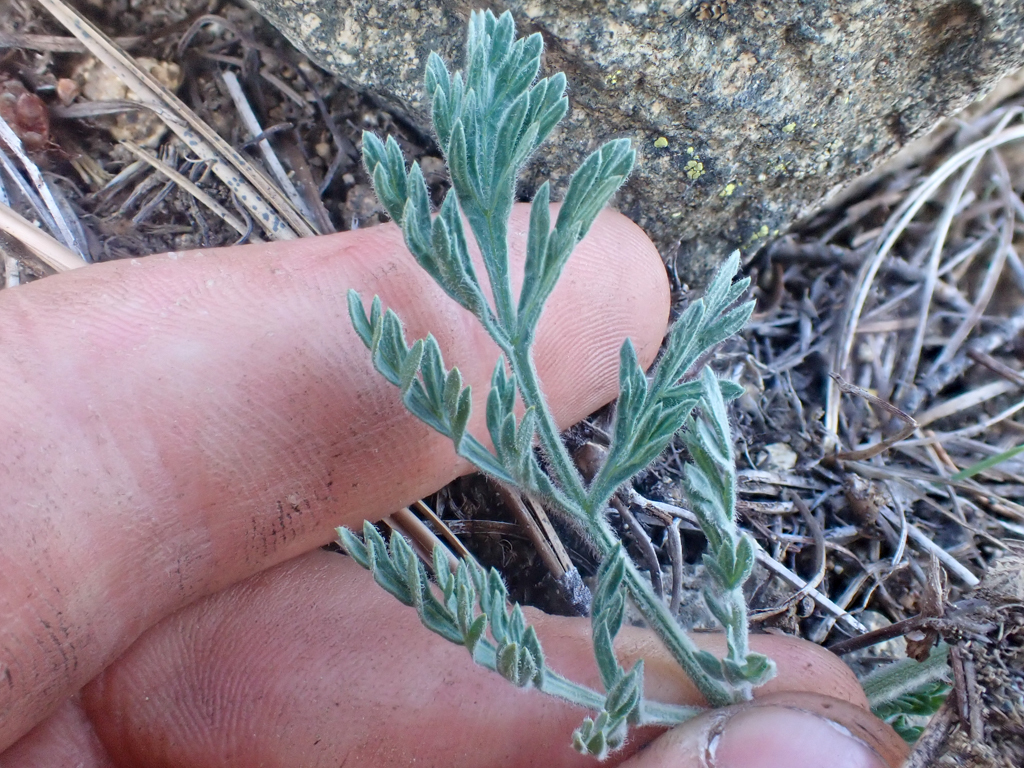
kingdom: Plantae
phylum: Tracheophyta
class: Magnoliopsida
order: Apiales
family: Apiaceae
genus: Lomatium
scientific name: Lomatium macrocarpum
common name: Big-seed biscuitroot
